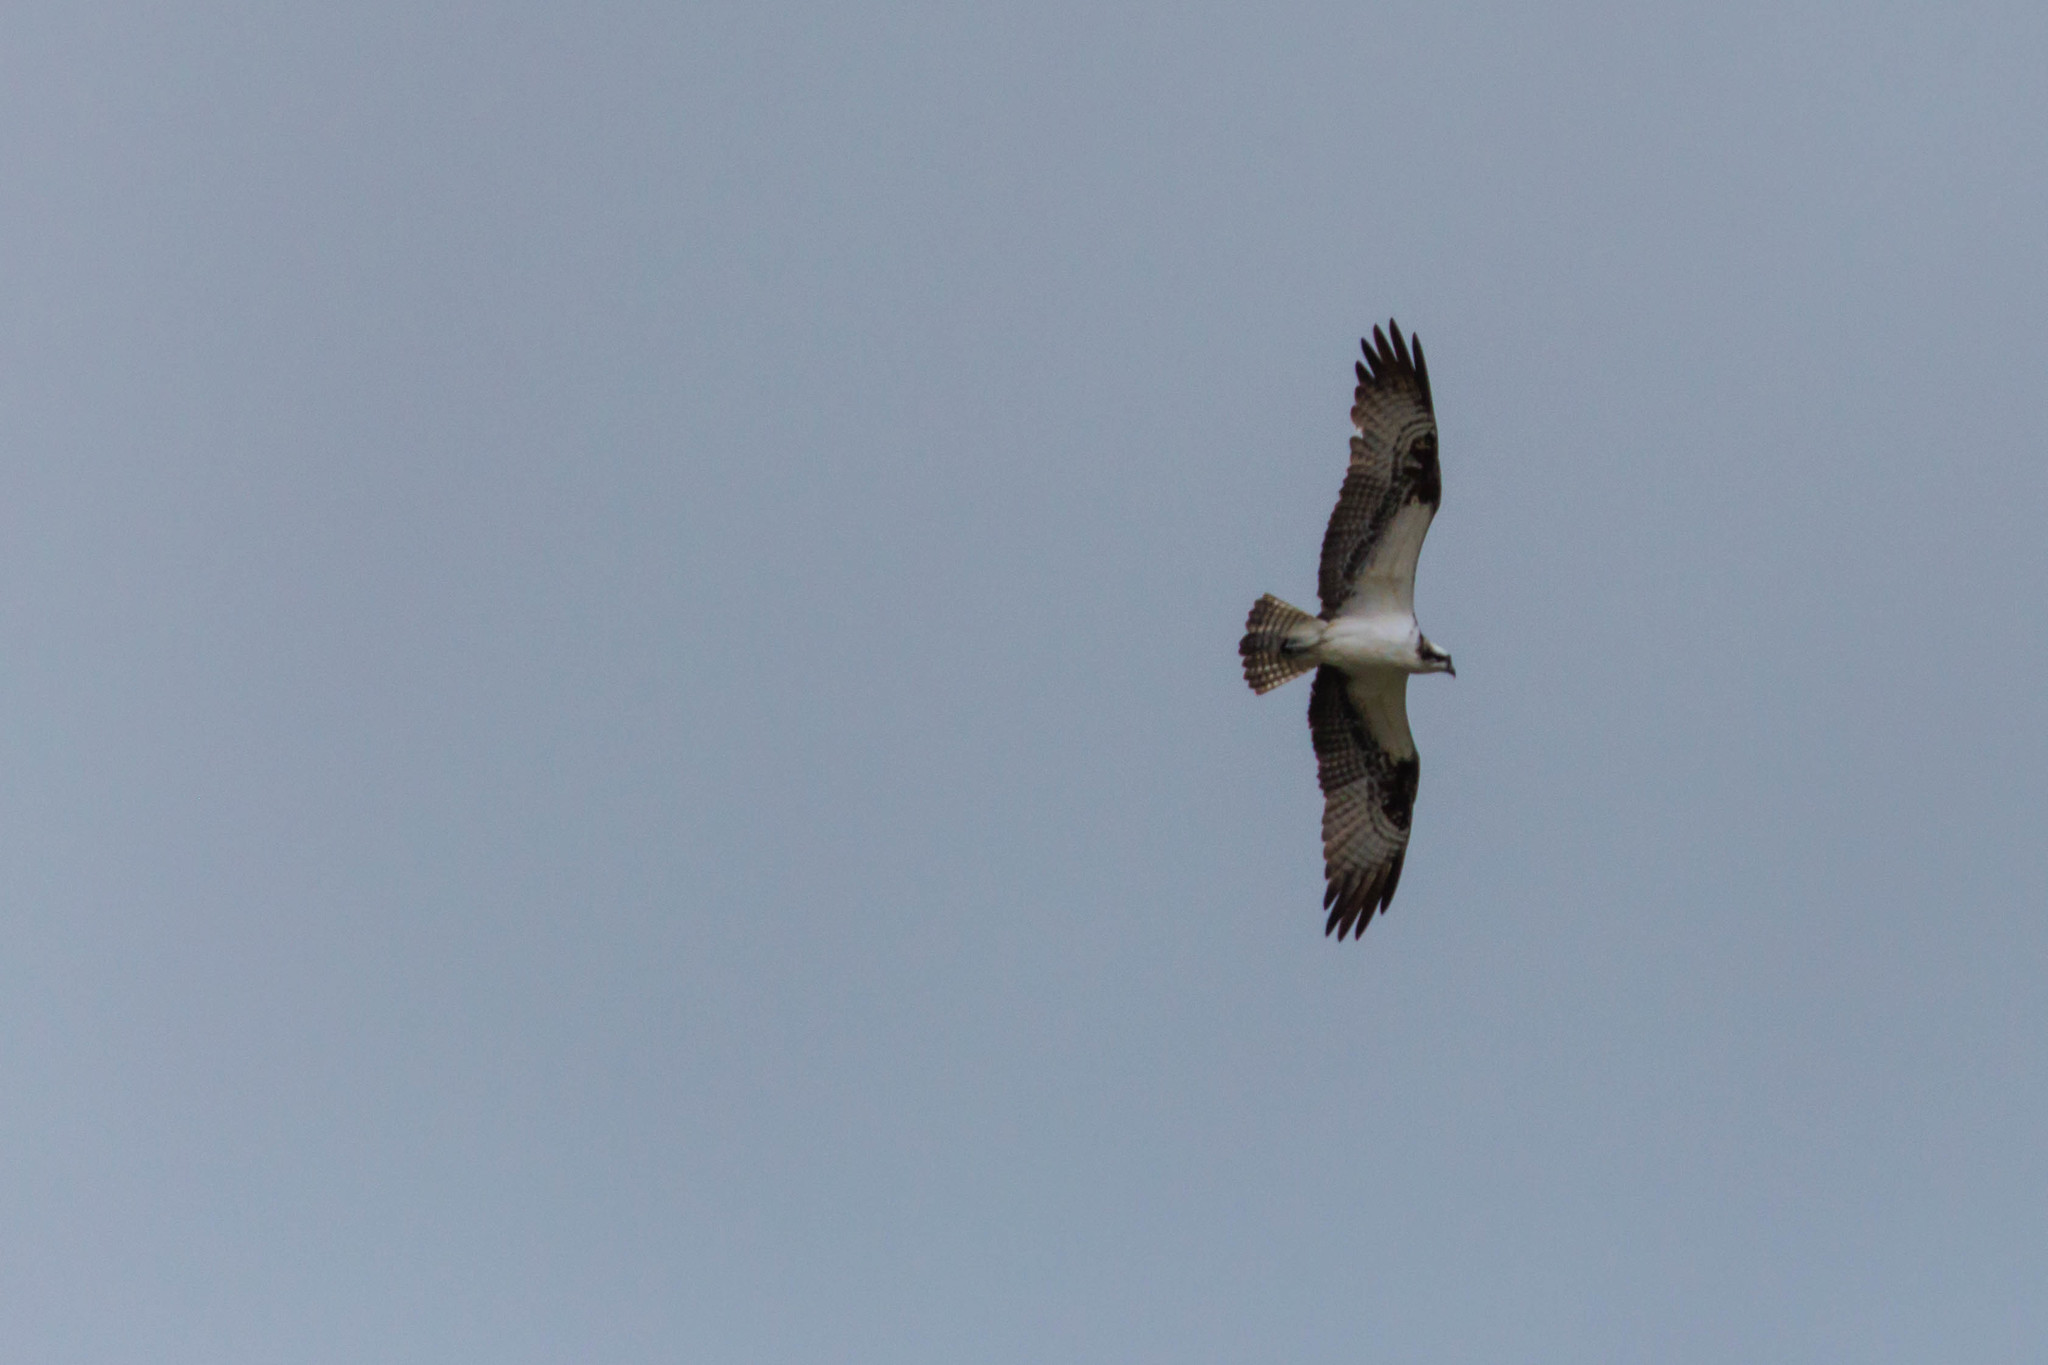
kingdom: Animalia
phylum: Chordata
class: Aves
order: Accipitriformes
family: Pandionidae
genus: Pandion
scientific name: Pandion haliaetus
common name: Osprey
